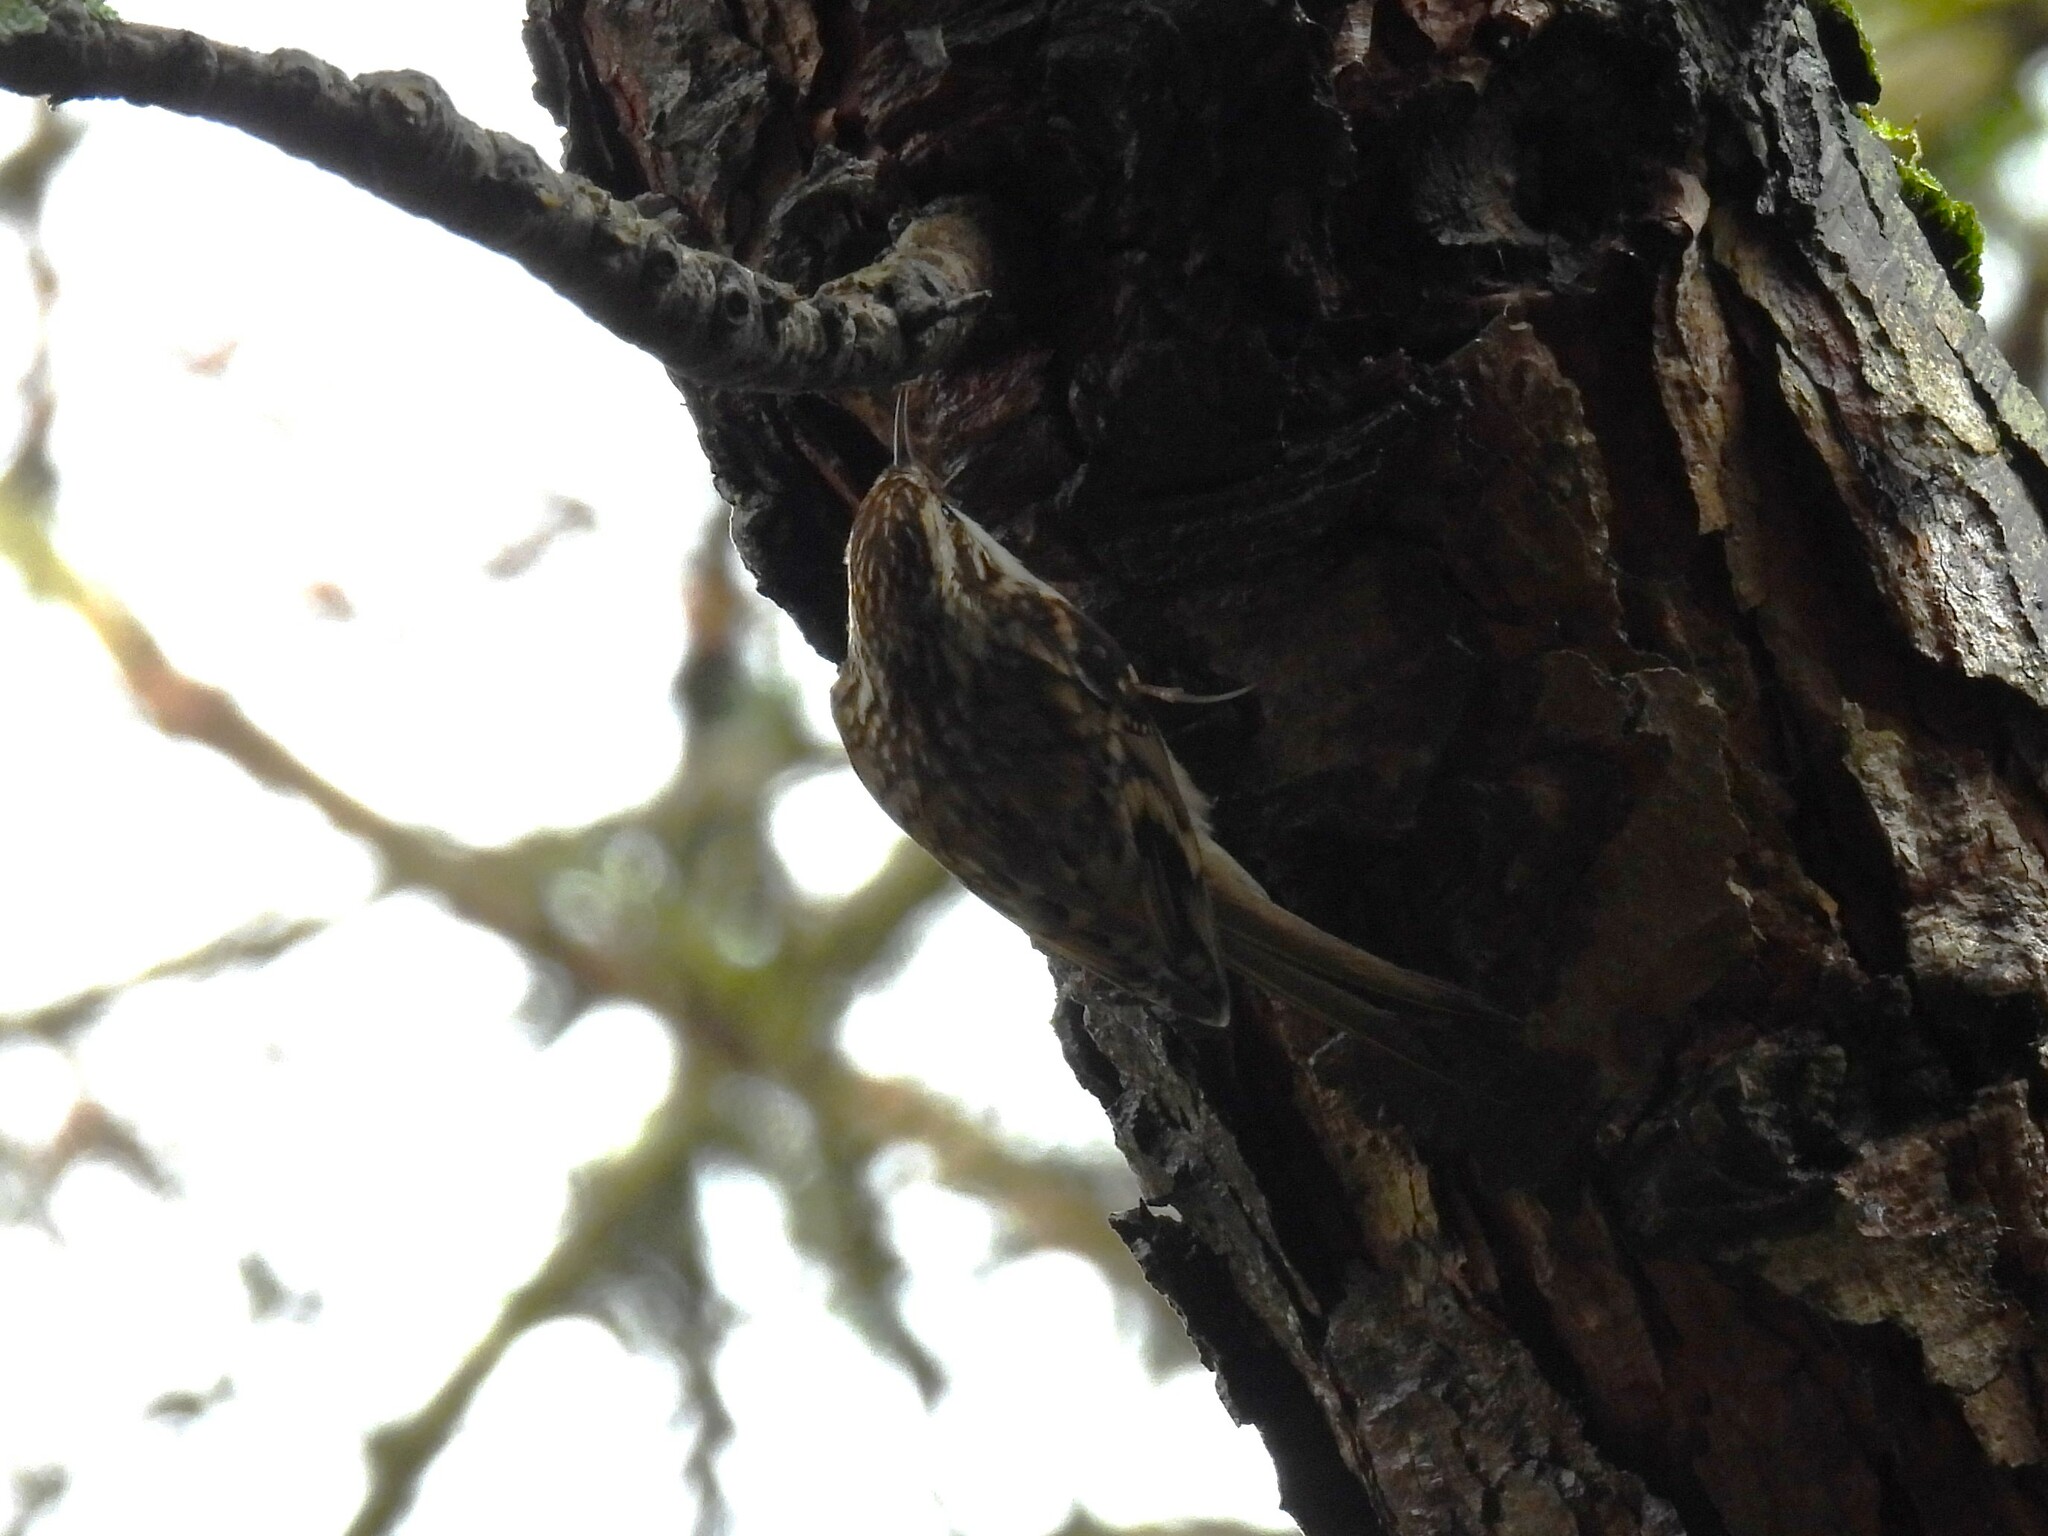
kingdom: Animalia
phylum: Chordata
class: Aves
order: Passeriformes
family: Certhiidae
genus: Certhia
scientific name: Certhia familiaris
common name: Eurasian treecreeper
